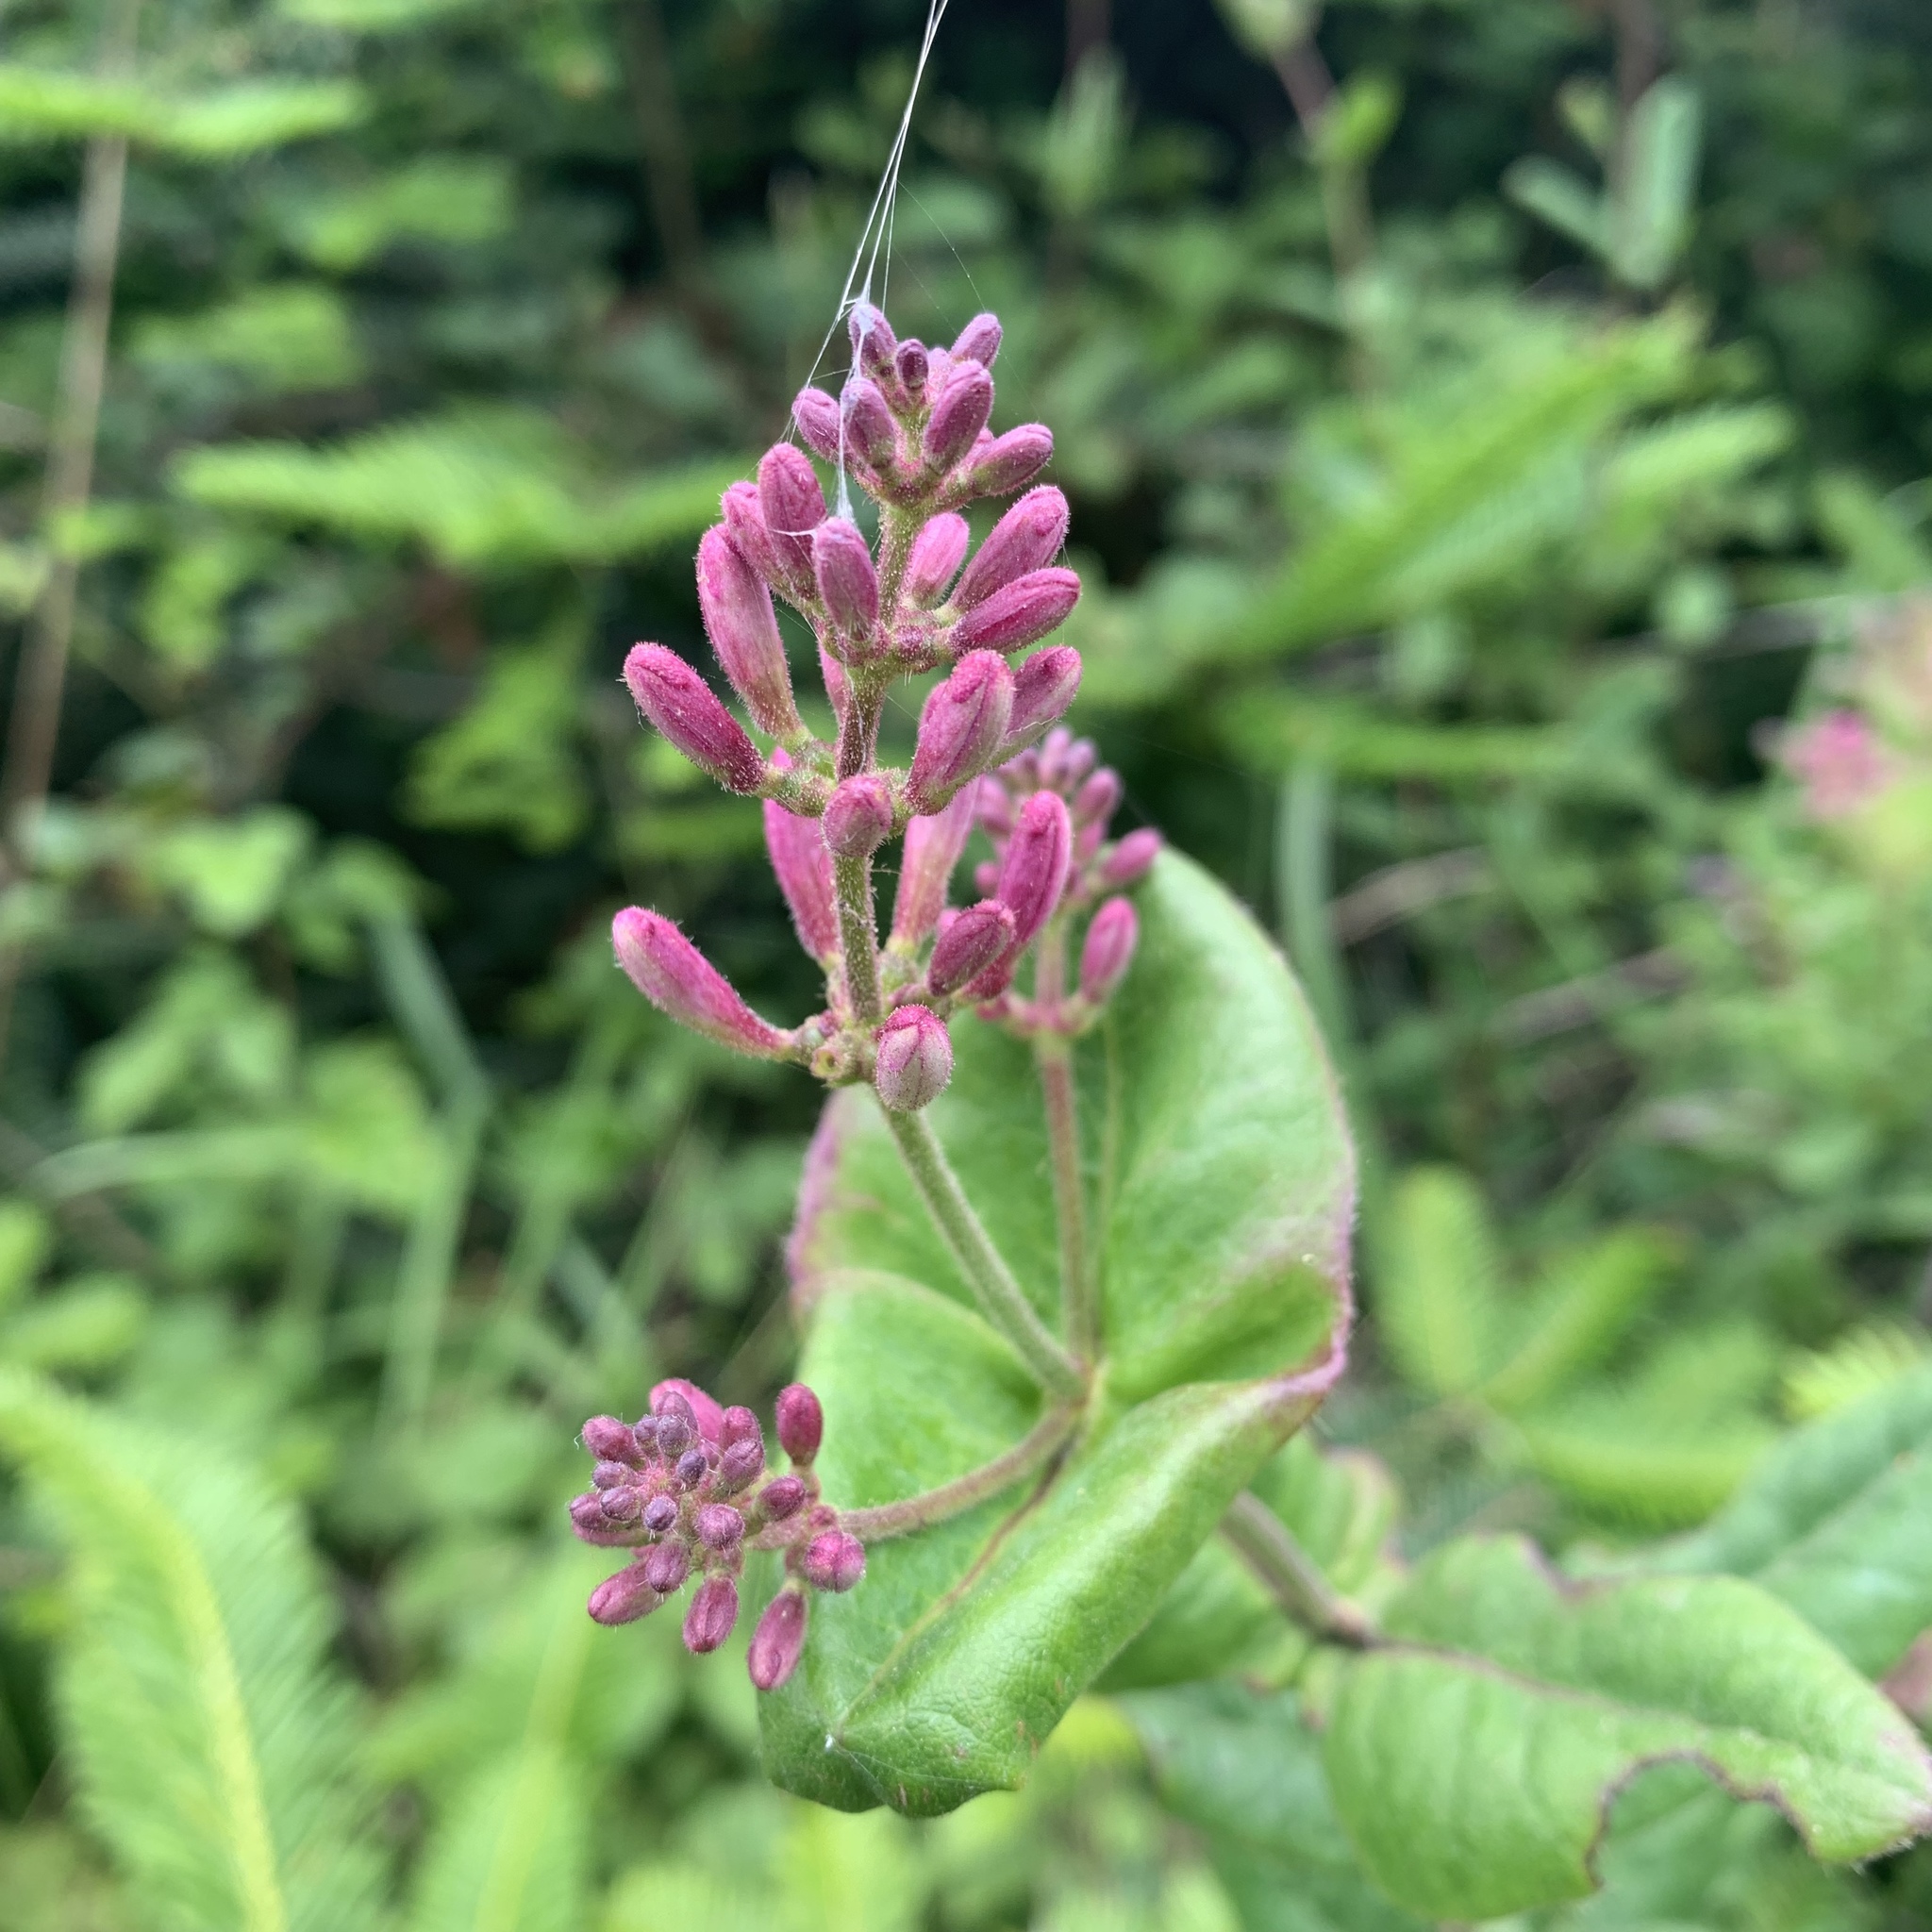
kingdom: Plantae
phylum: Tracheophyta
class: Magnoliopsida
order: Dipsacales
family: Caprifoliaceae
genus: Lonicera
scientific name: Lonicera hispidula
